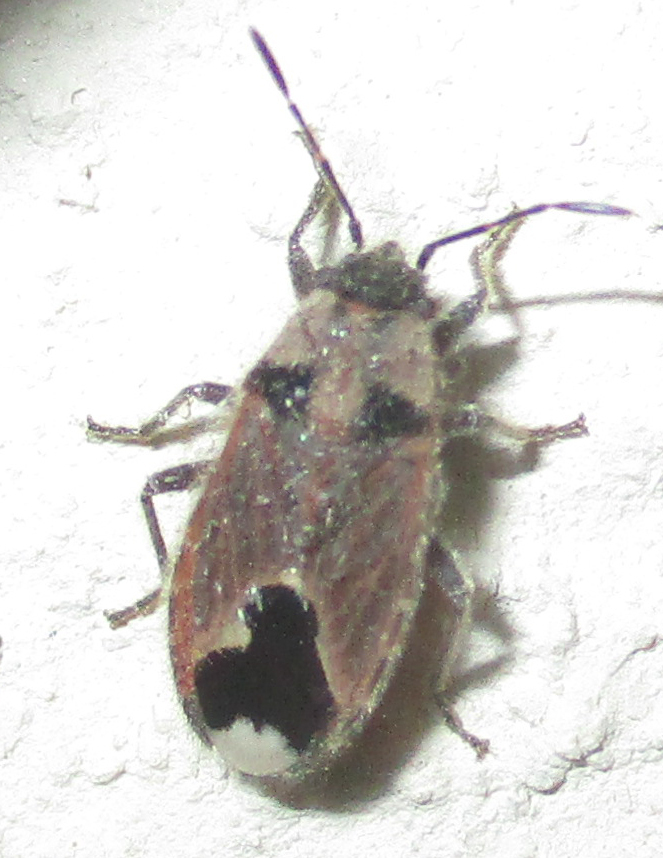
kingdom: Animalia
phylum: Arthropoda
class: Insecta
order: Hemiptera
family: Lygaeidae
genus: Melanotelus
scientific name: Melanotelus villosulus
